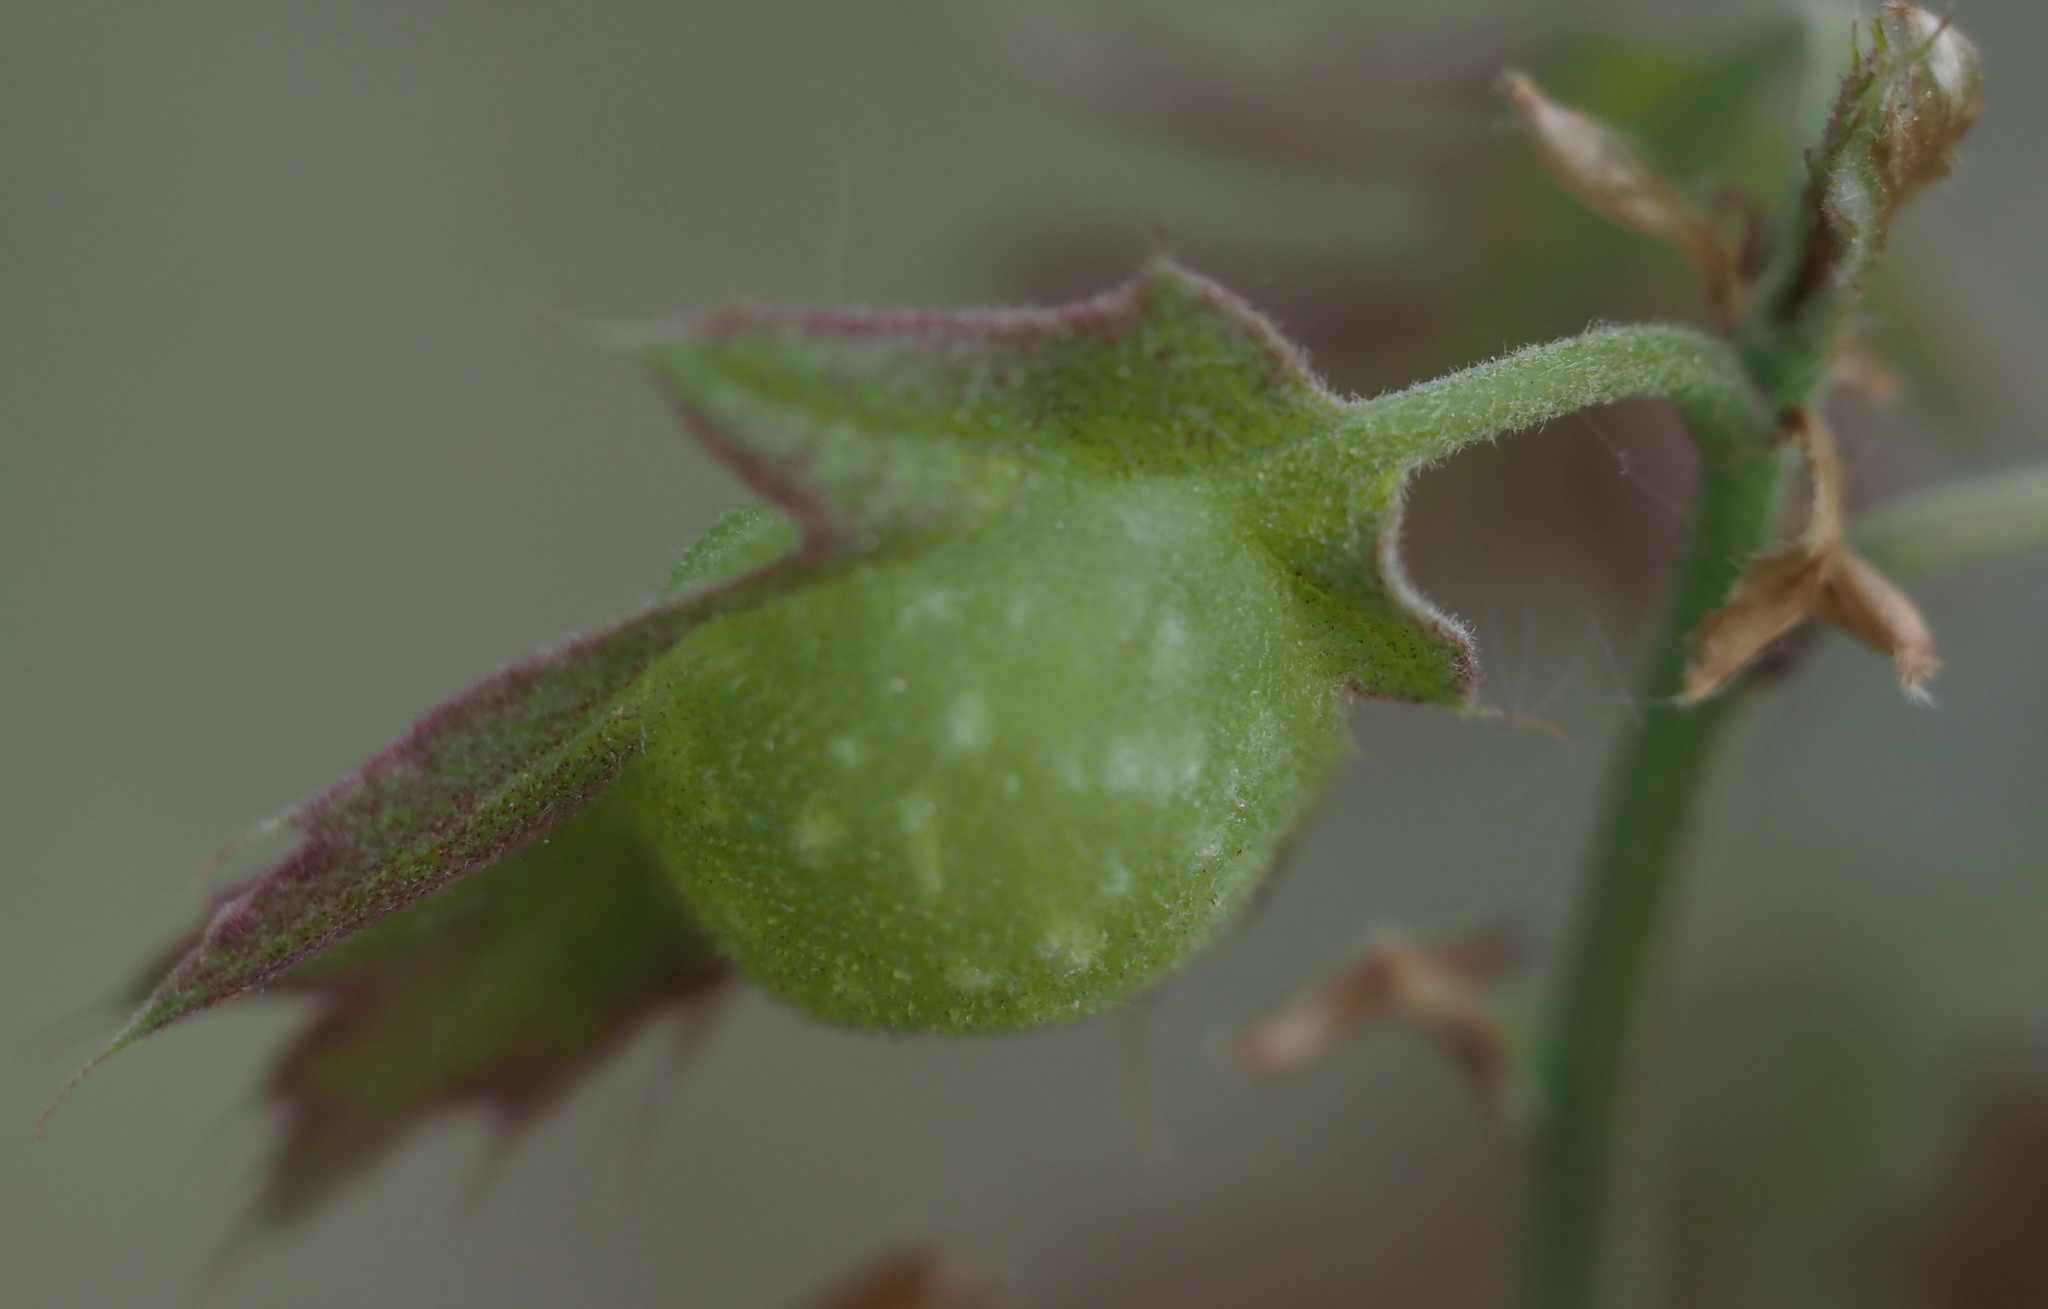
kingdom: Animalia
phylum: Arthropoda
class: Insecta
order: Hymenoptera
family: Cynipidae
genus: Dryocosmus
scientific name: Dryocosmus quercuspalustris
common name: Succulent oak gall wasp
